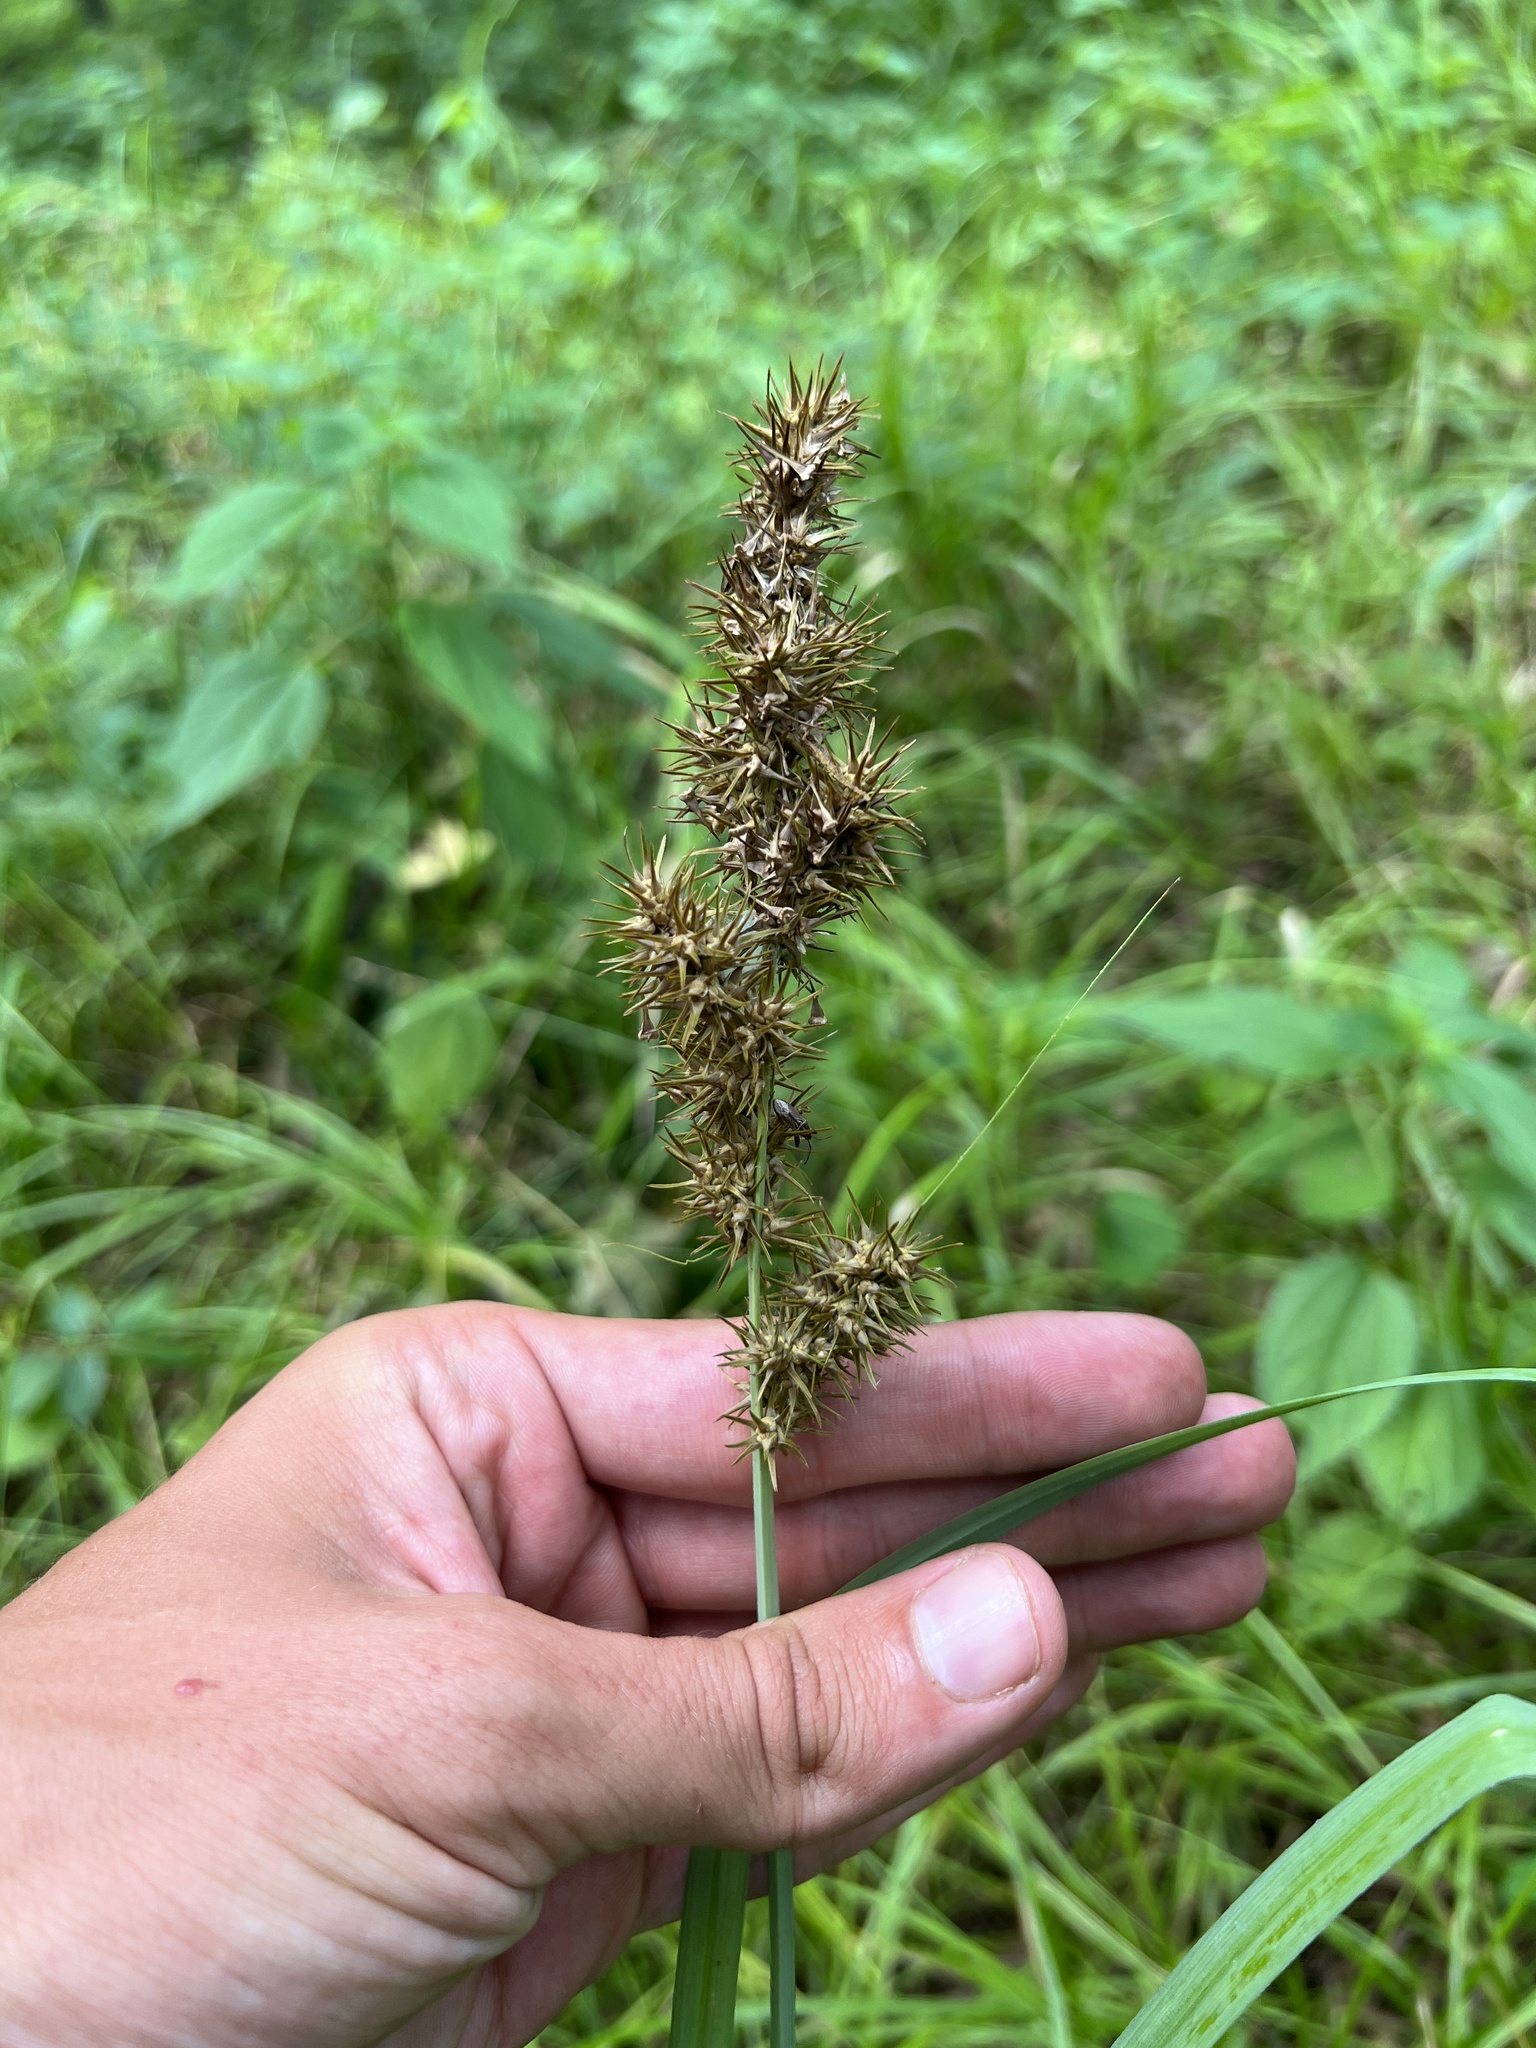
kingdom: Plantae
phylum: Tracheophyta
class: Liliopsida
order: Poales
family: Cyperaceae
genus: Carex
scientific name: Carex crus-corvi
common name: Crow-spur sedge
